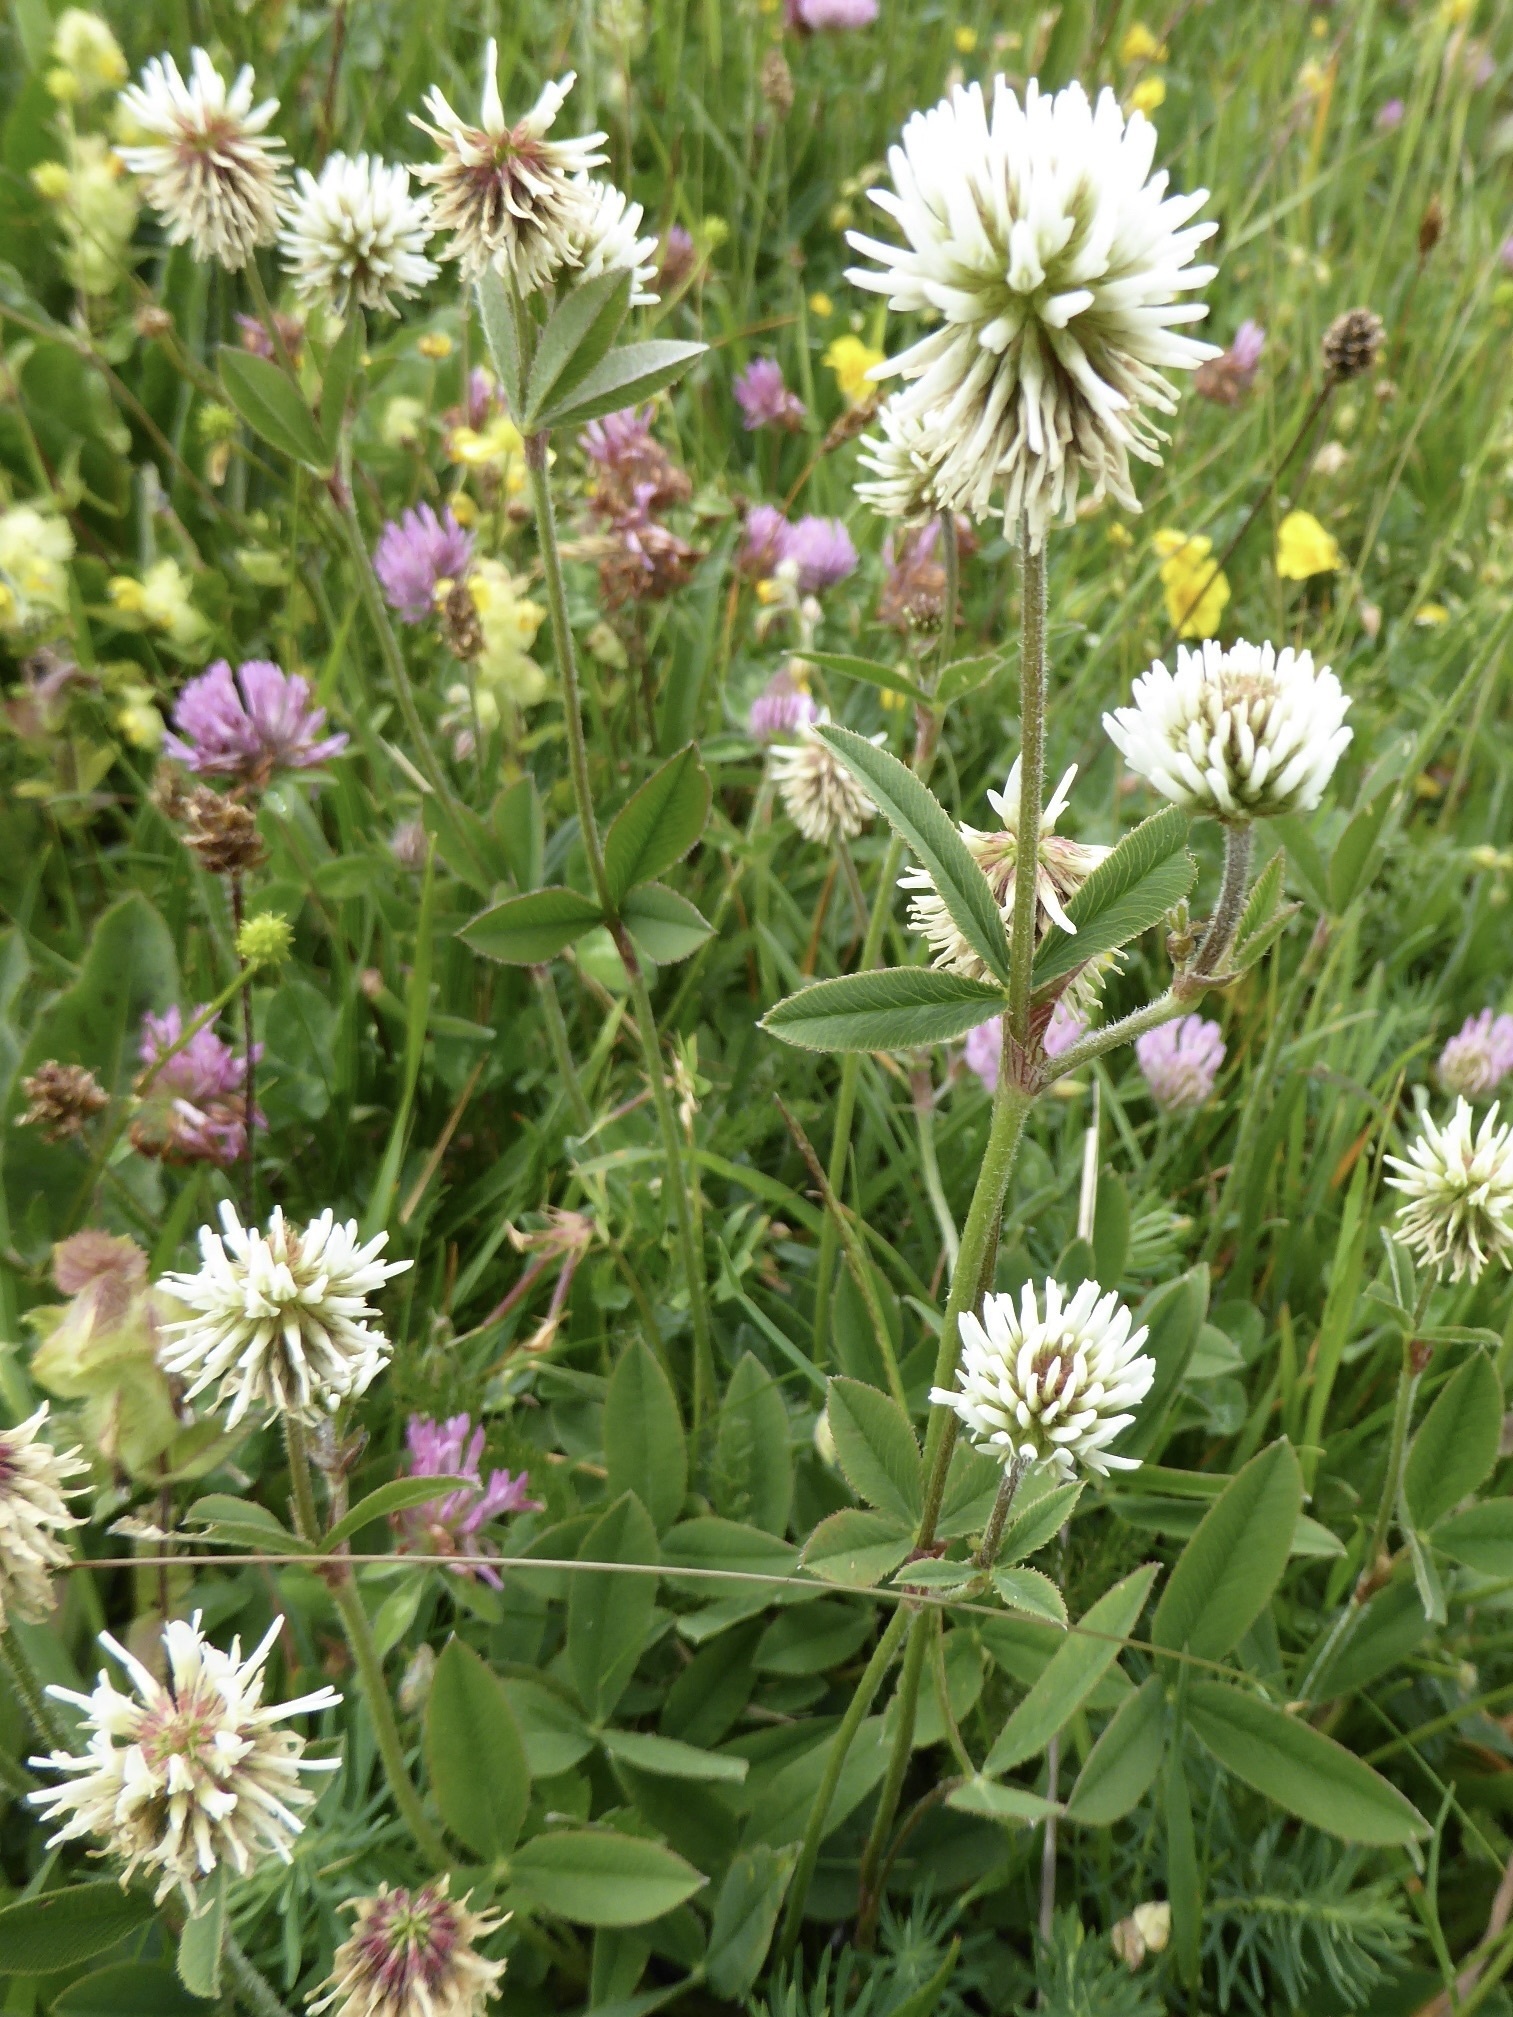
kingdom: Plantae
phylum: Tracheophyta
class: Magnoliopsida
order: Fabales
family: Fabaceae
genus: Trifolium
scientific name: Trifolium montanum
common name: Mountain clover
